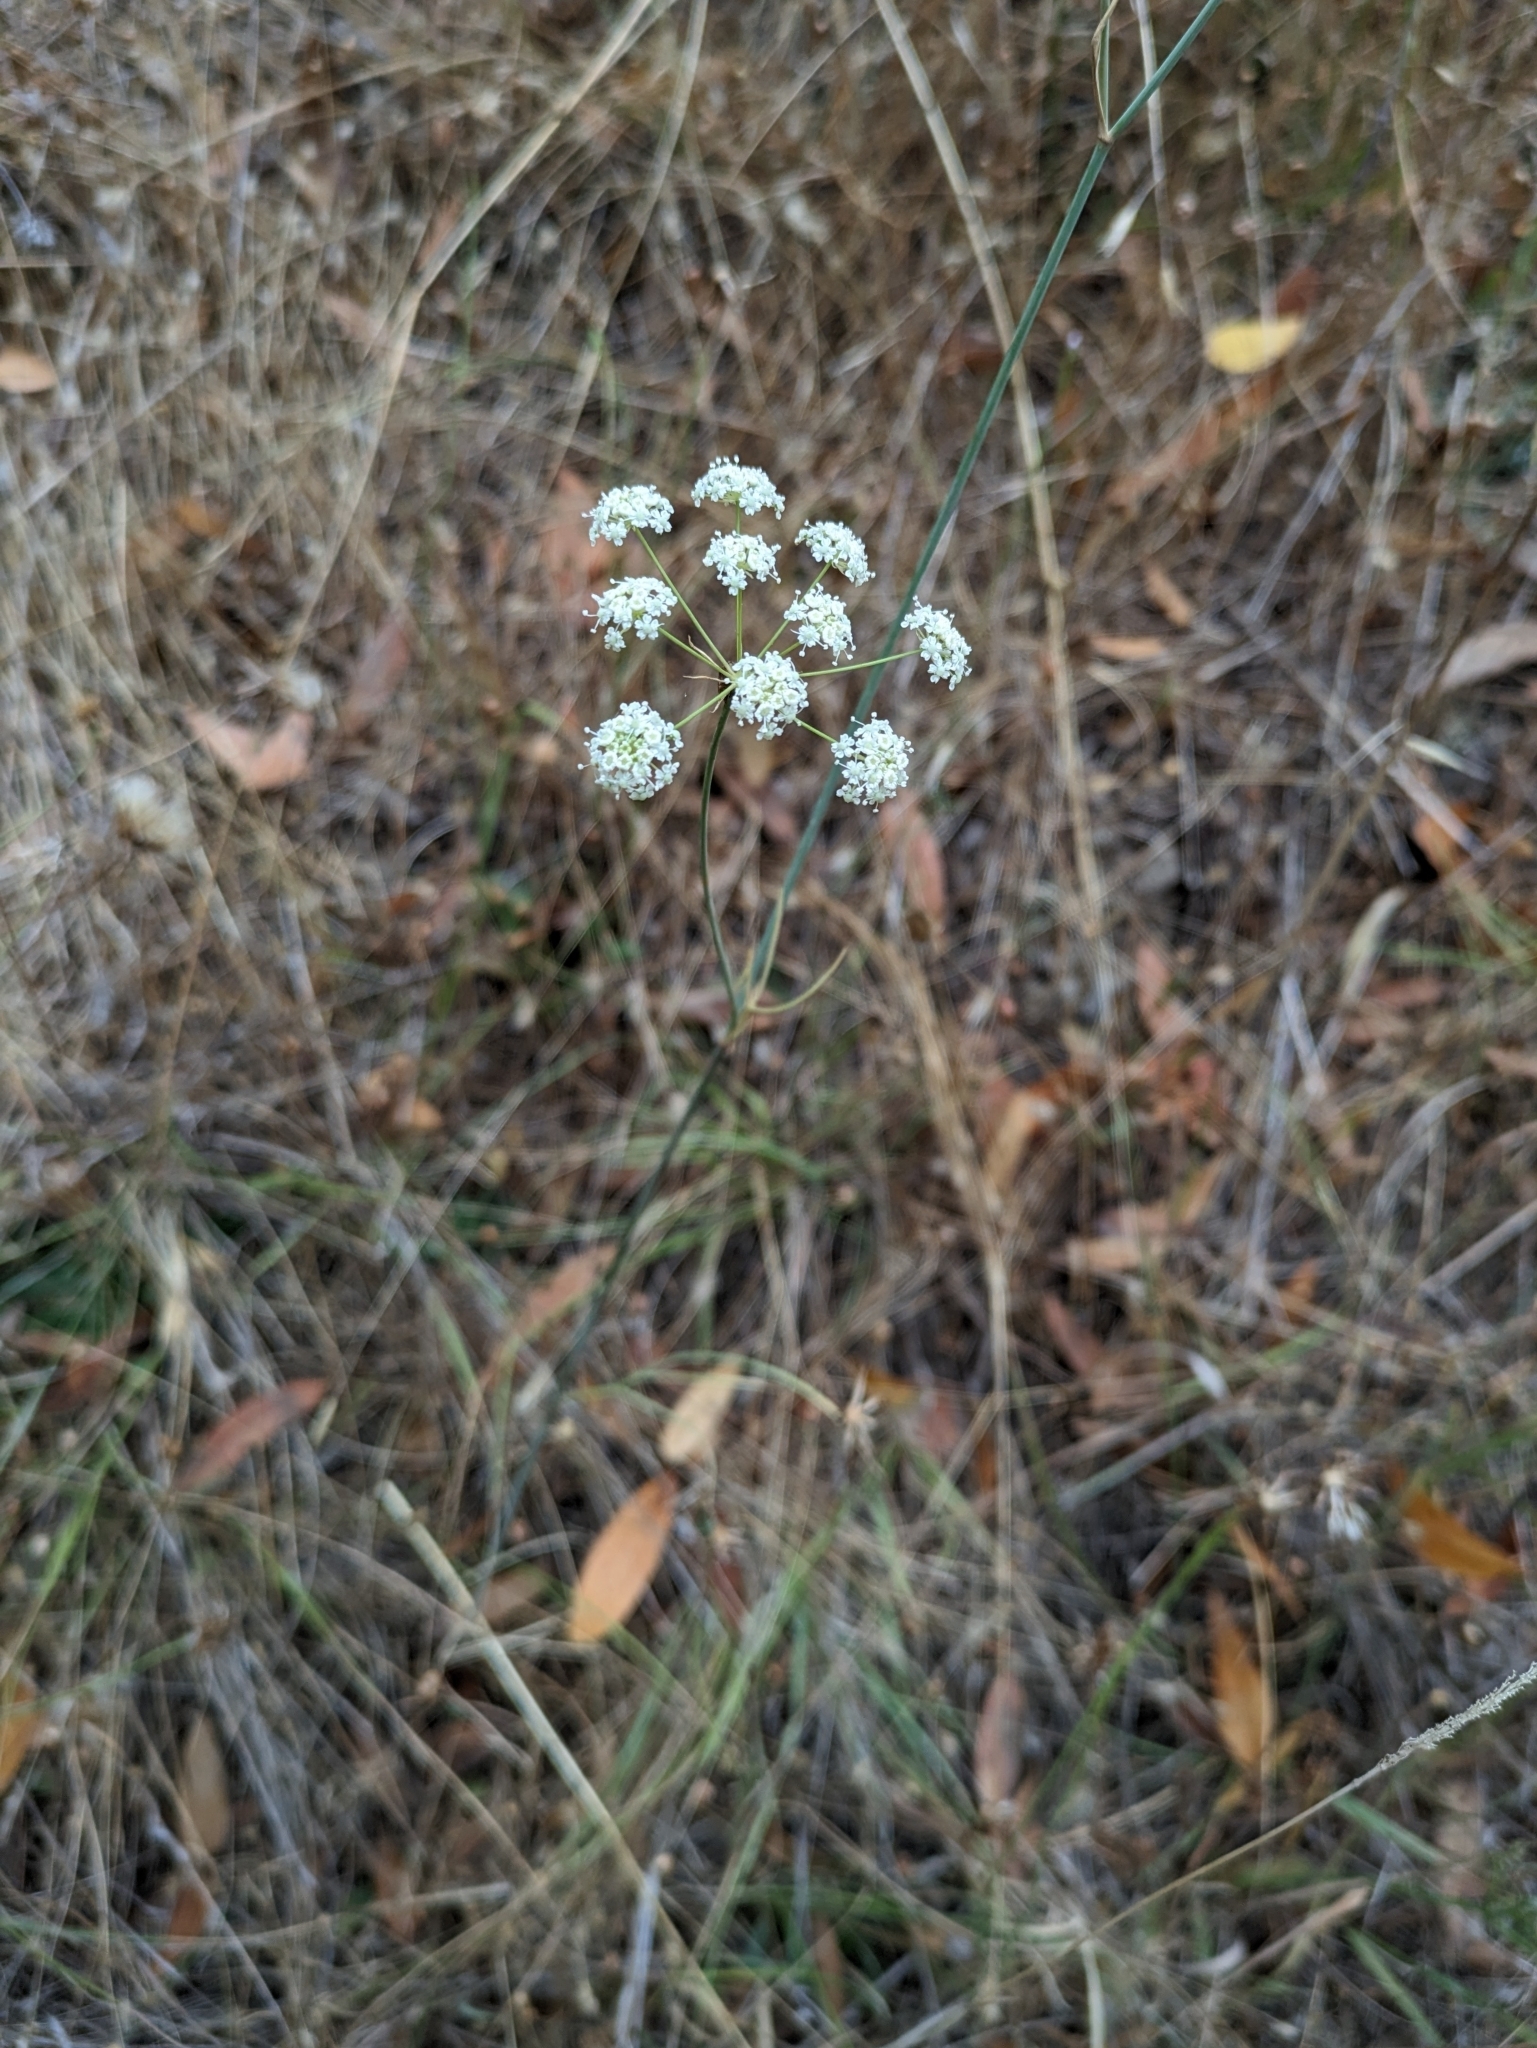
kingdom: Plantae
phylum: Tracheophyta
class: Magnoliopsida
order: Apiales
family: Apiaceae
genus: Perideridia
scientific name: Perideridia kelloggii
